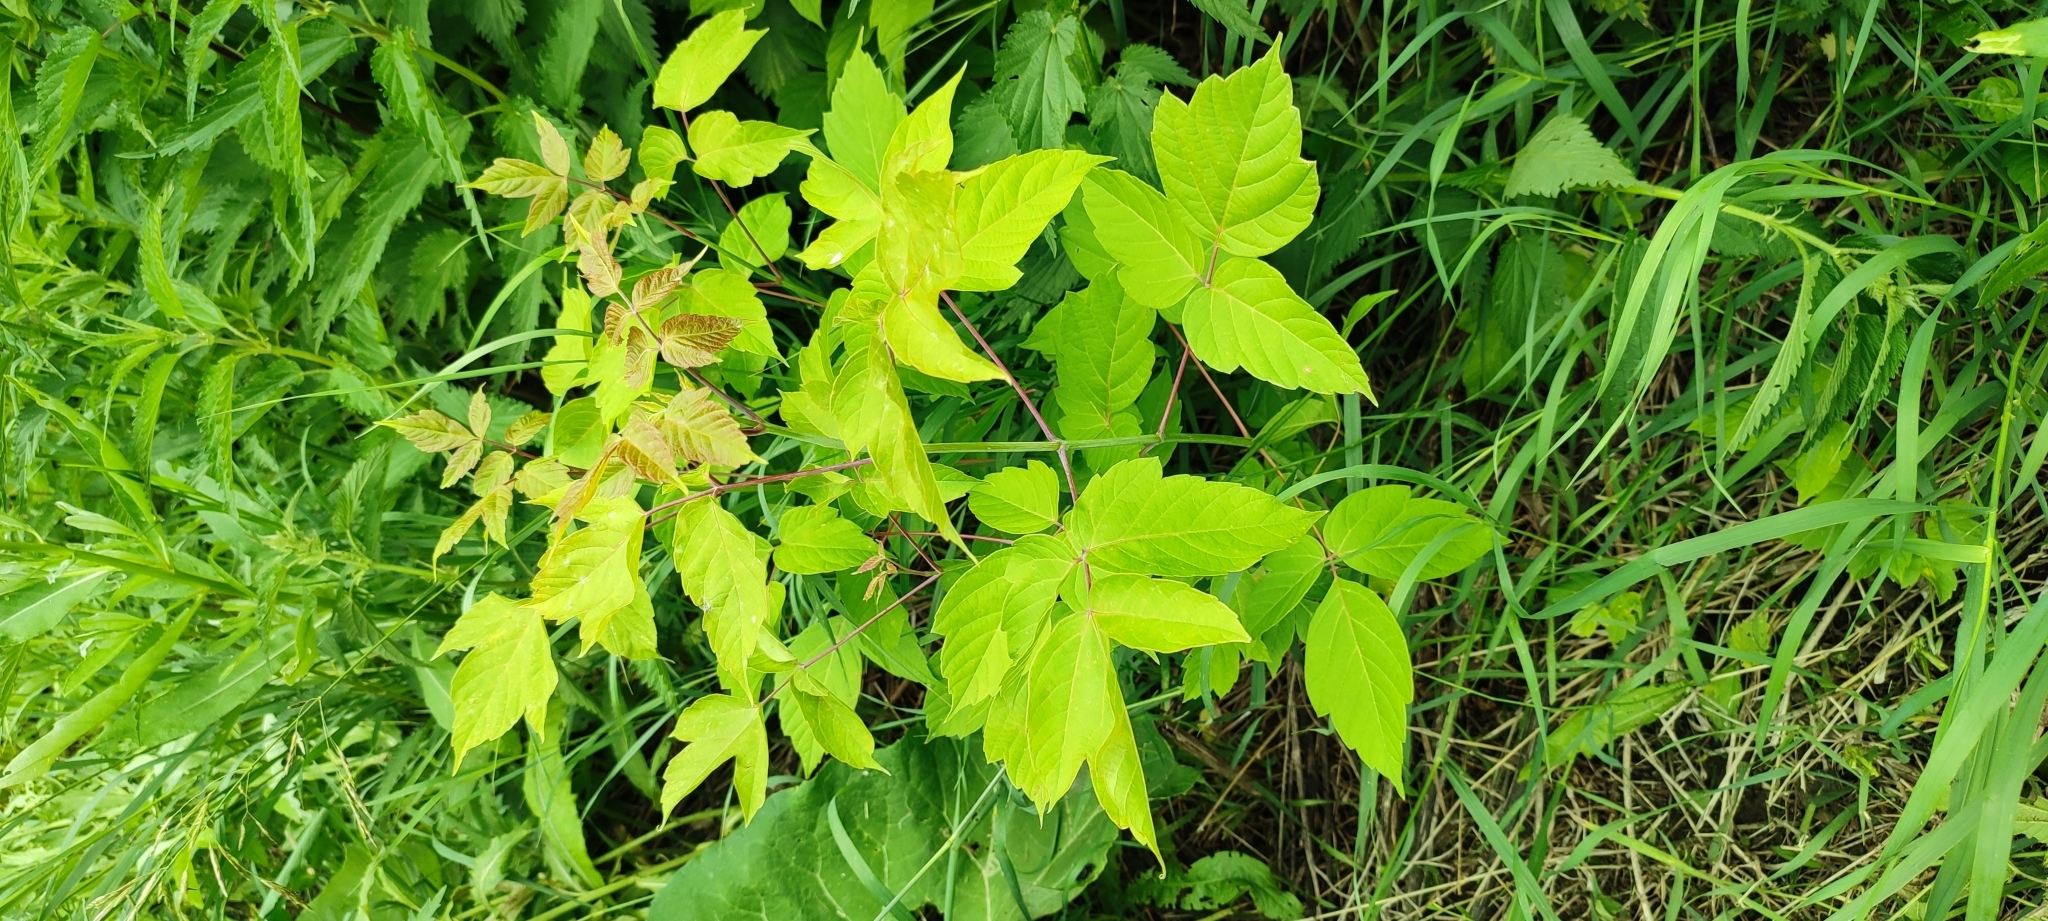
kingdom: Plantae
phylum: Tracheophyta
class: Magnoliopsida
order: Sapindales
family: Sapindaceae
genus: Acer
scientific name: Acer negundo
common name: Ashleaf maple
